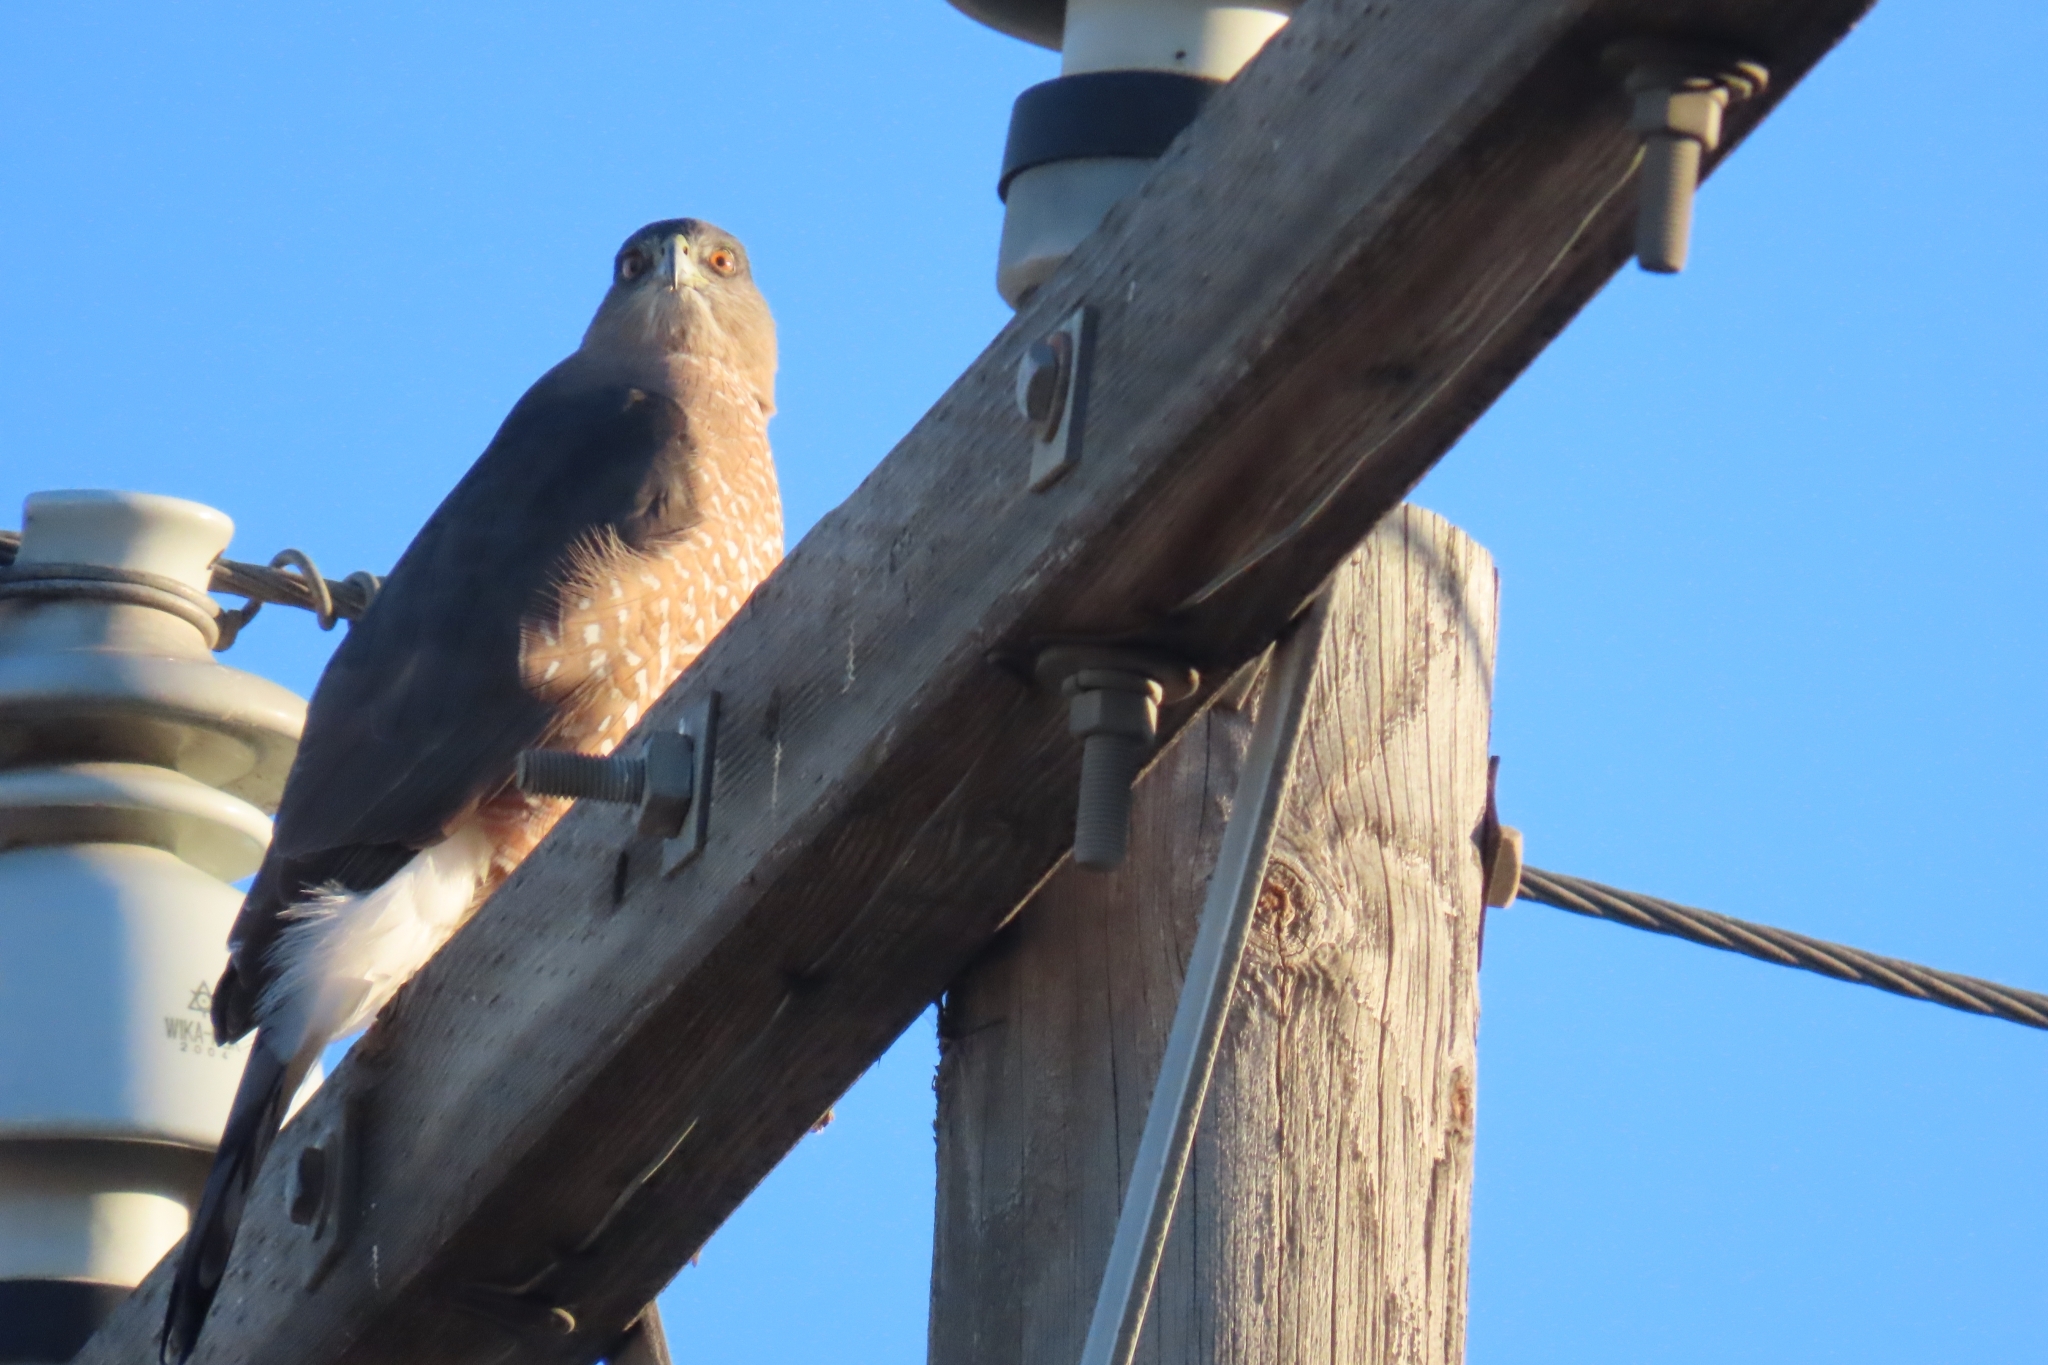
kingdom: Animalia
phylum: Chordata
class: Aves
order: Accipitriformes
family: Accipitridae
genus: Accipiter
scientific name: Accipiter cooperii
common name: Cooper's hawk
